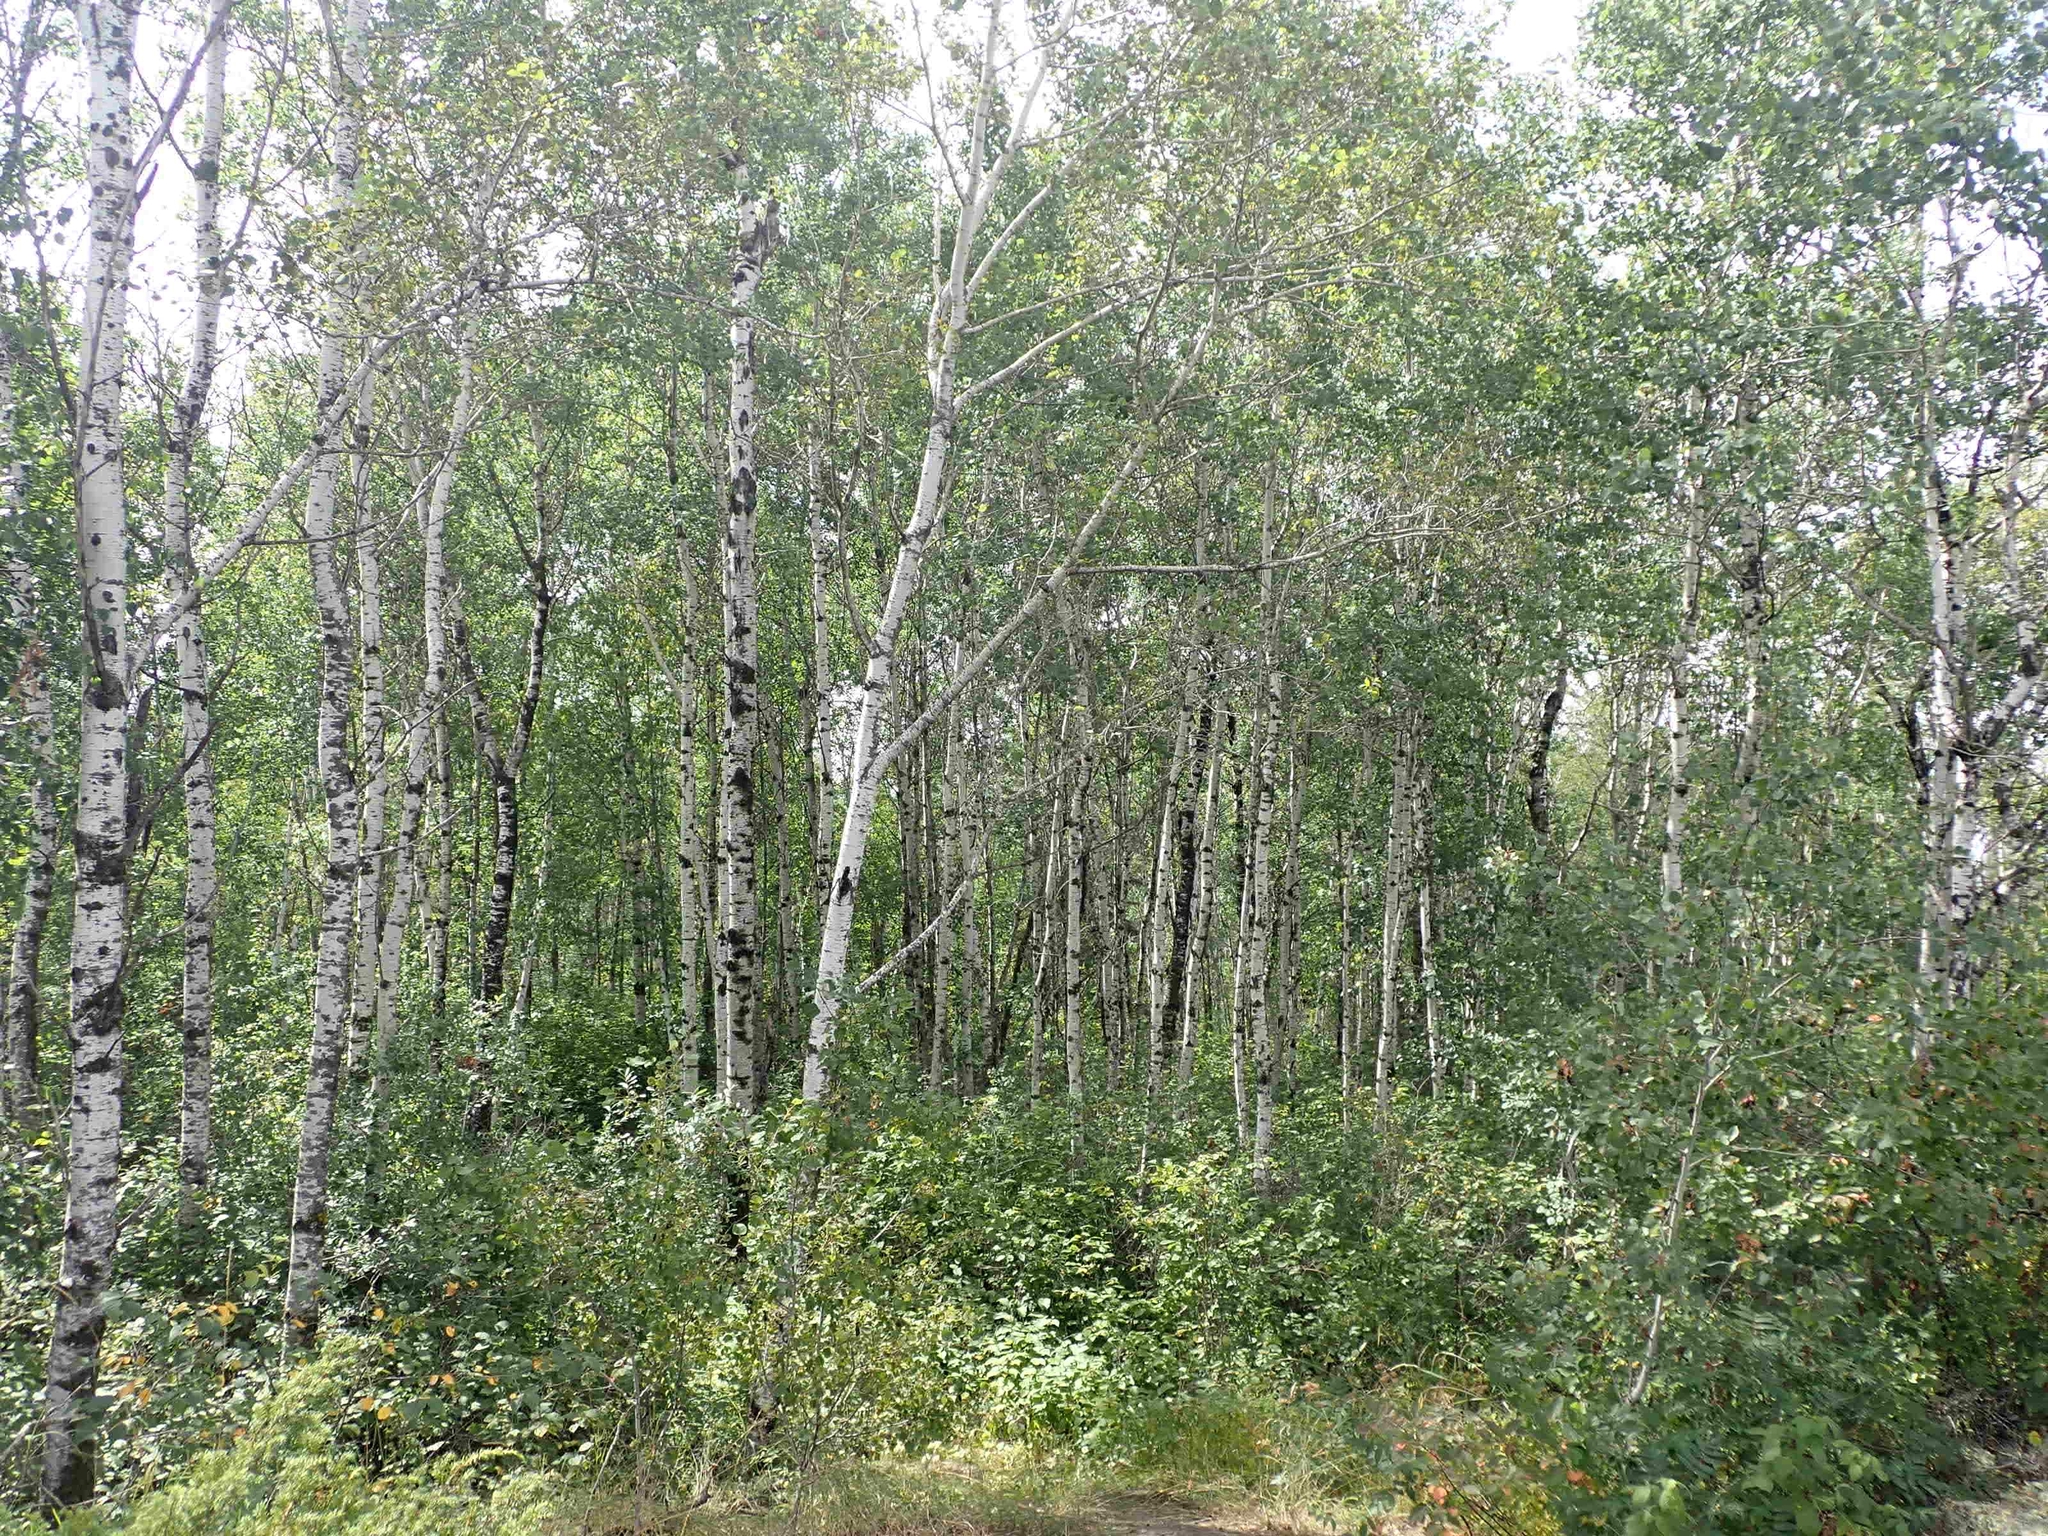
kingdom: Plantae
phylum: Tracheophyta
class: Magnoliopsida
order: Malpighiales
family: Salicaceae
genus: Populus
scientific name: Populus tremuloides
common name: Quaking aspen
